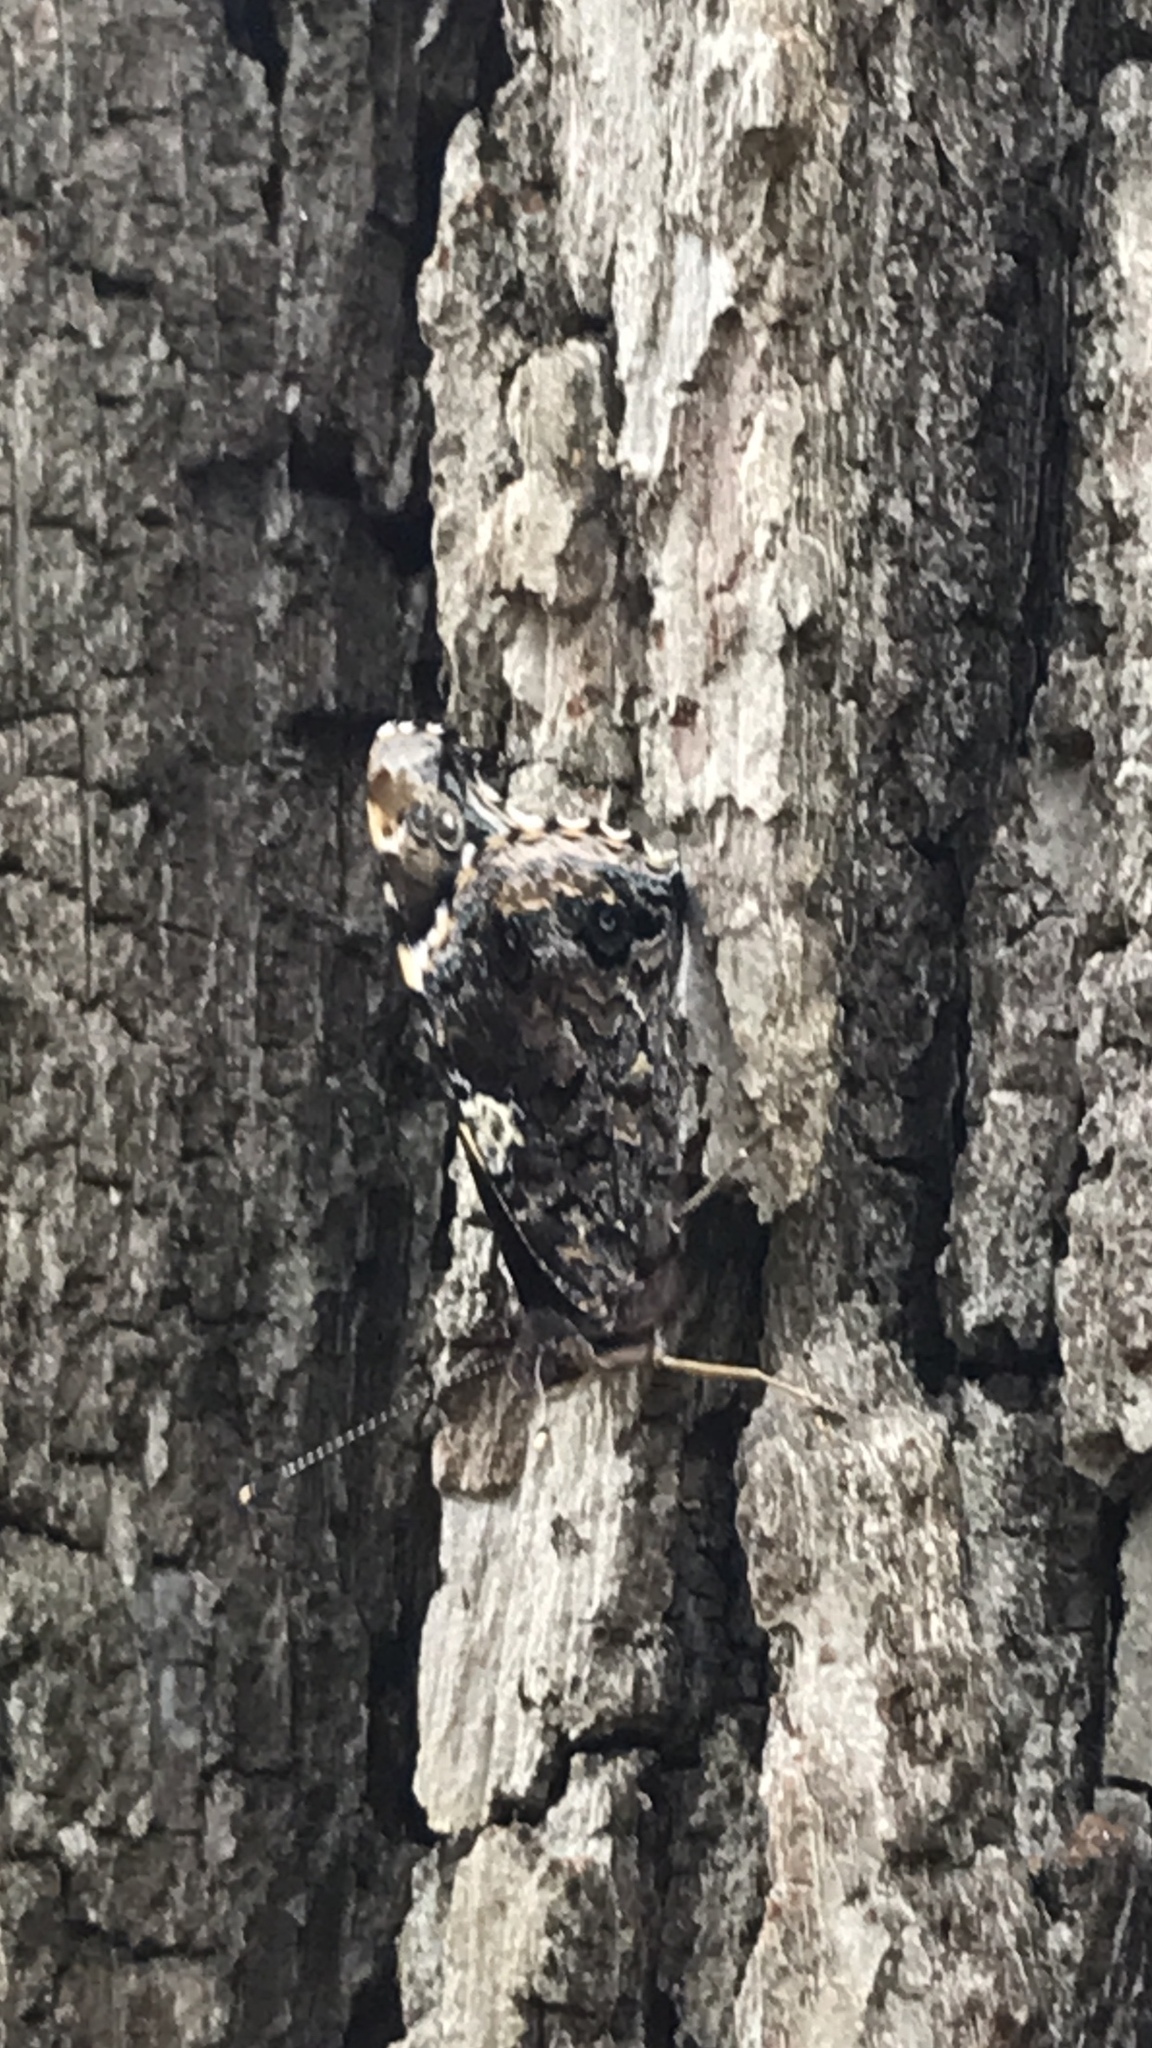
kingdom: Animalia
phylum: Arthropoda
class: Insecta
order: Lepidoptera
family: Nymphalidae
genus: Vanessa
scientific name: Vanessa atalanta
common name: Red admiral
